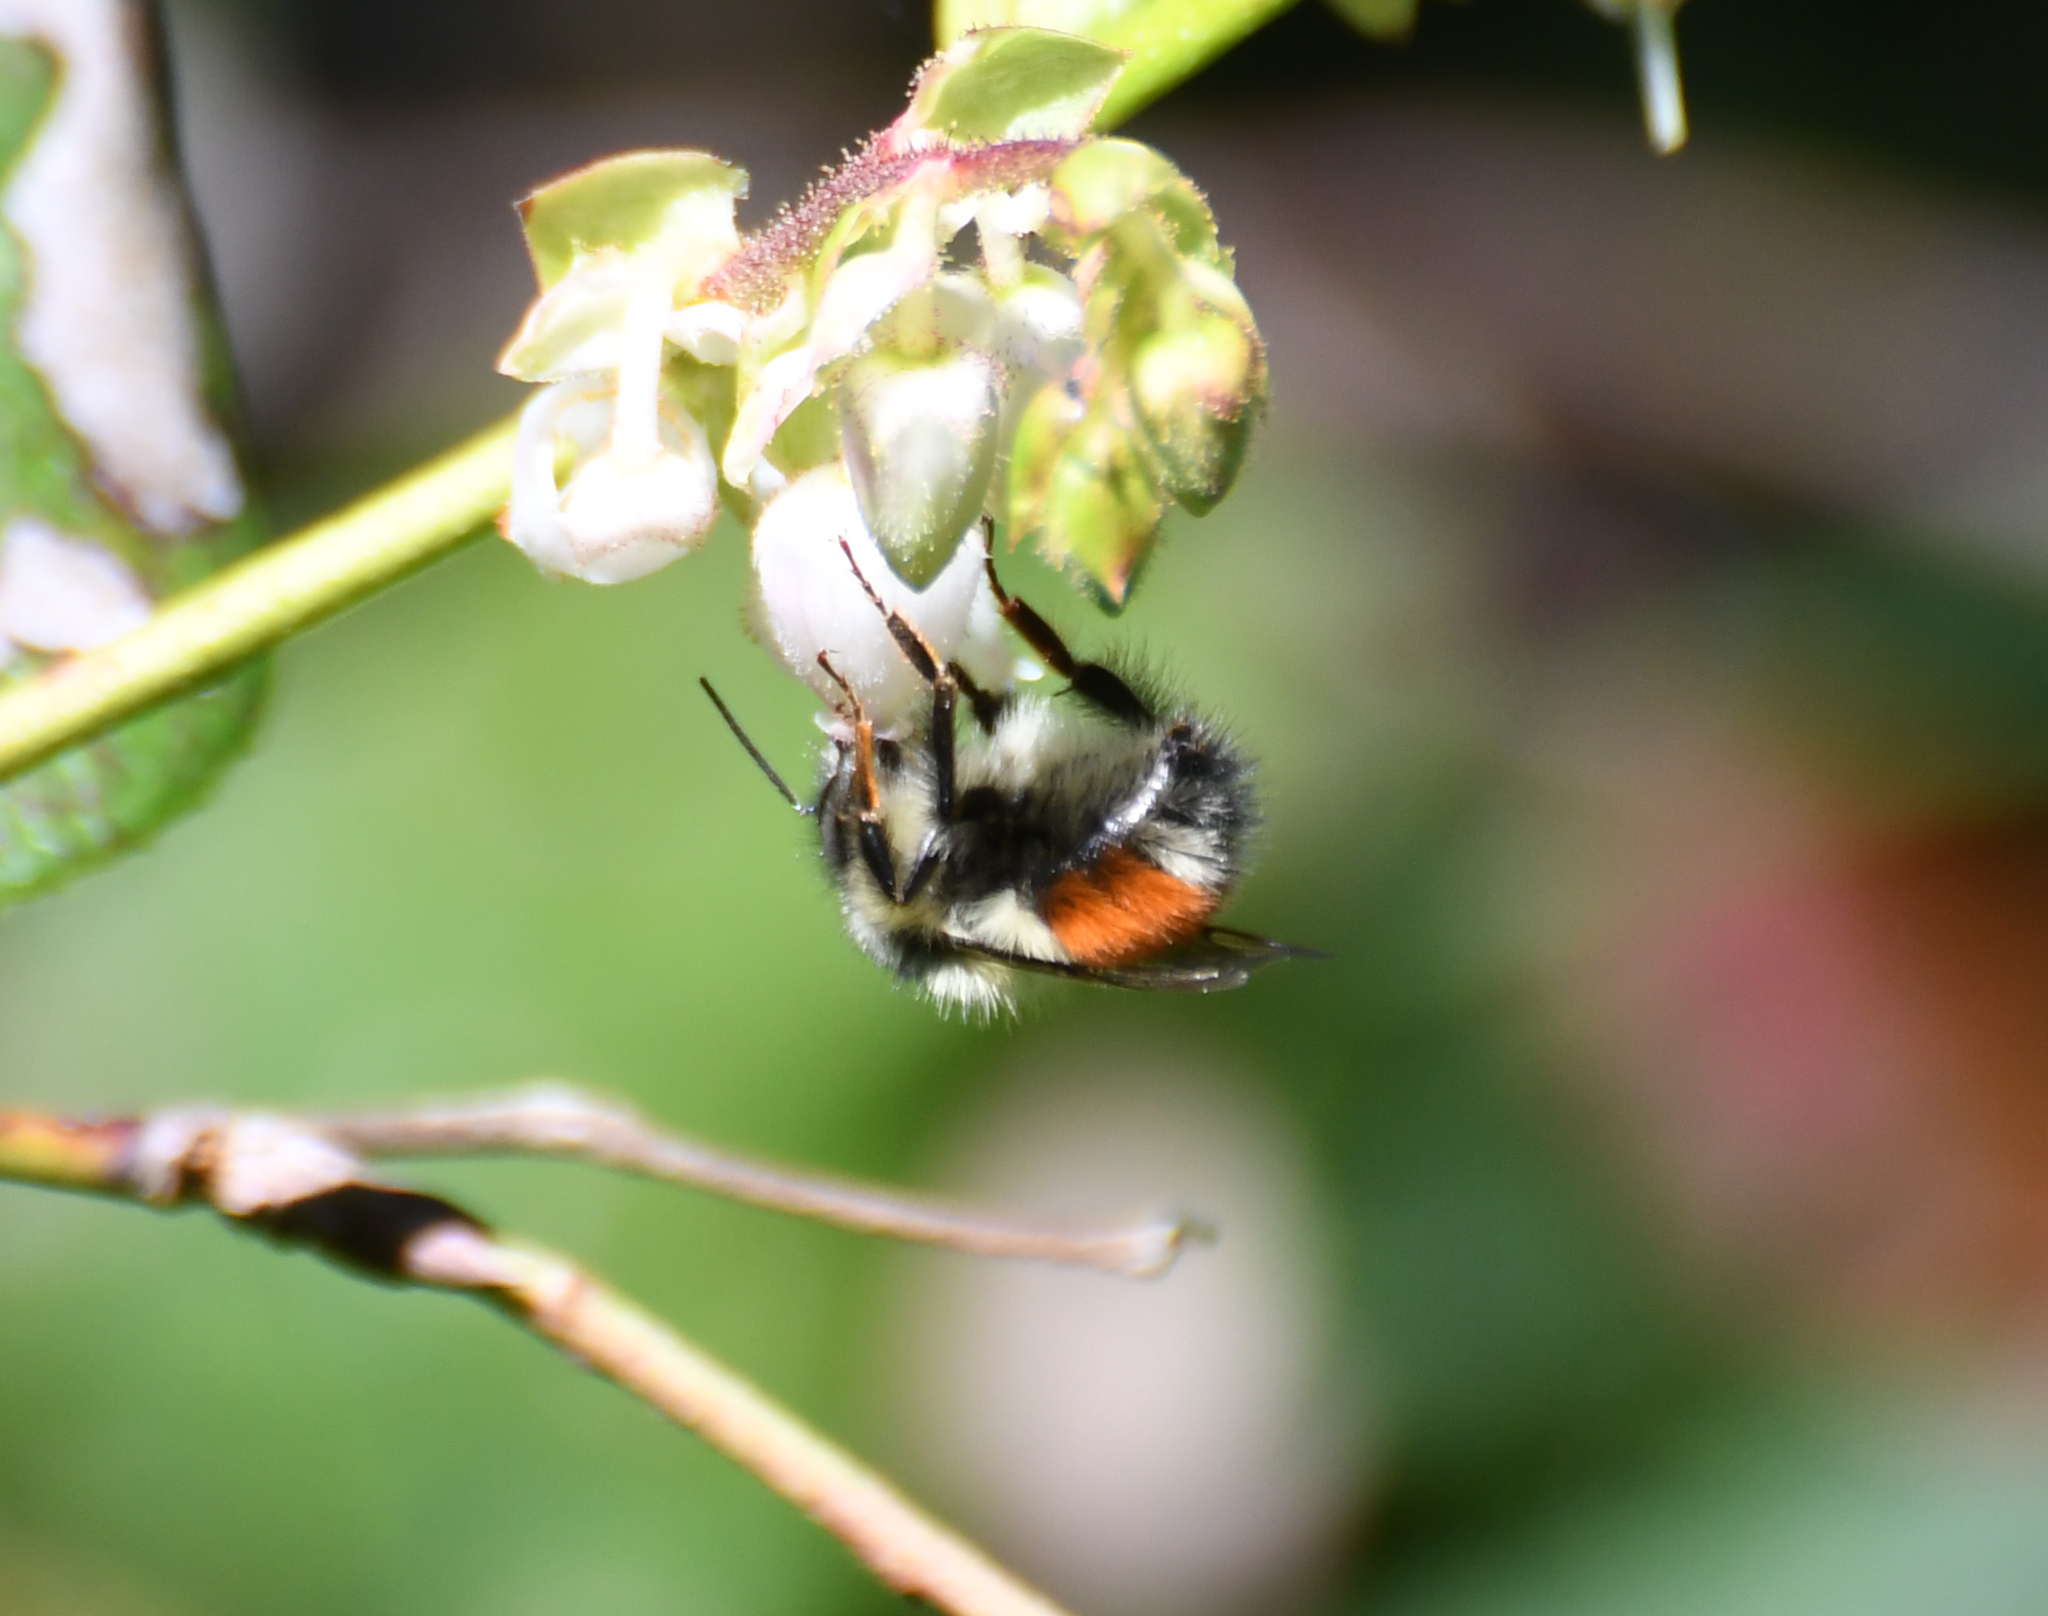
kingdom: Animalia
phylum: Arthropoda
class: Insecta
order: Hymenoptera
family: Apidae
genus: Bombus
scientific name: Bombus melanopygus
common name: Black tail bumble bee
